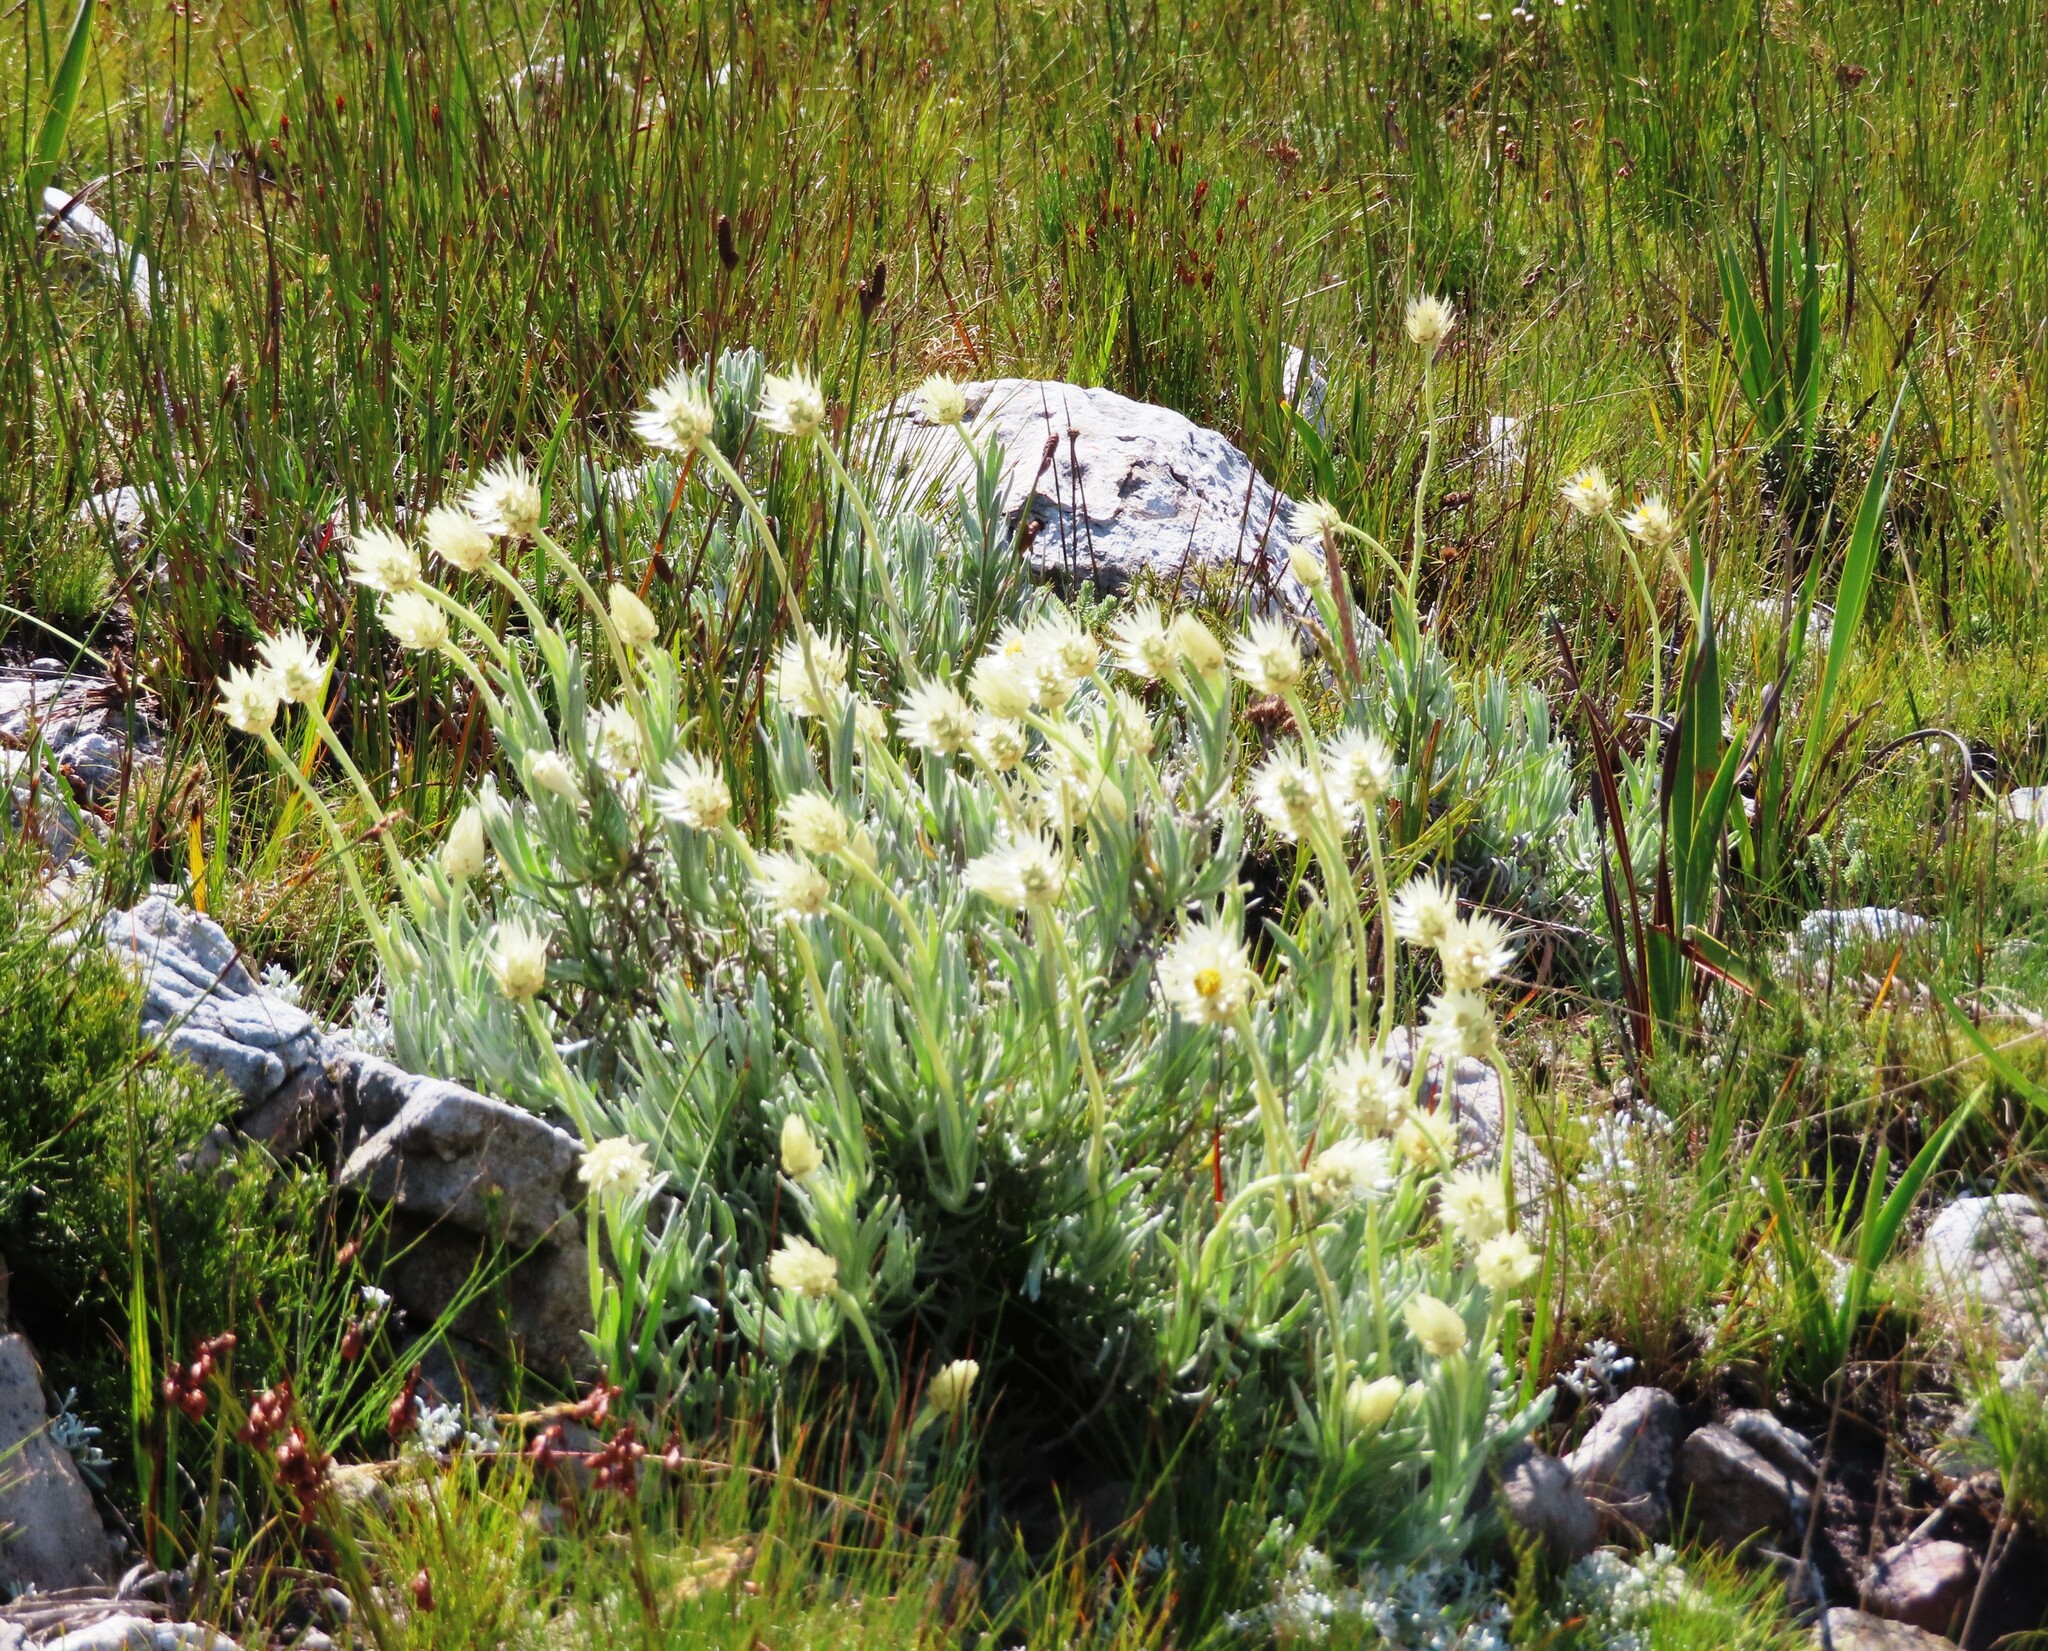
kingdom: Plantae
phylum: Tracheophyta
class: Magnoliopsida
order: Asterales
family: Asteraceae
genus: Syncarpha
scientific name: Syncarpha speciosissima
